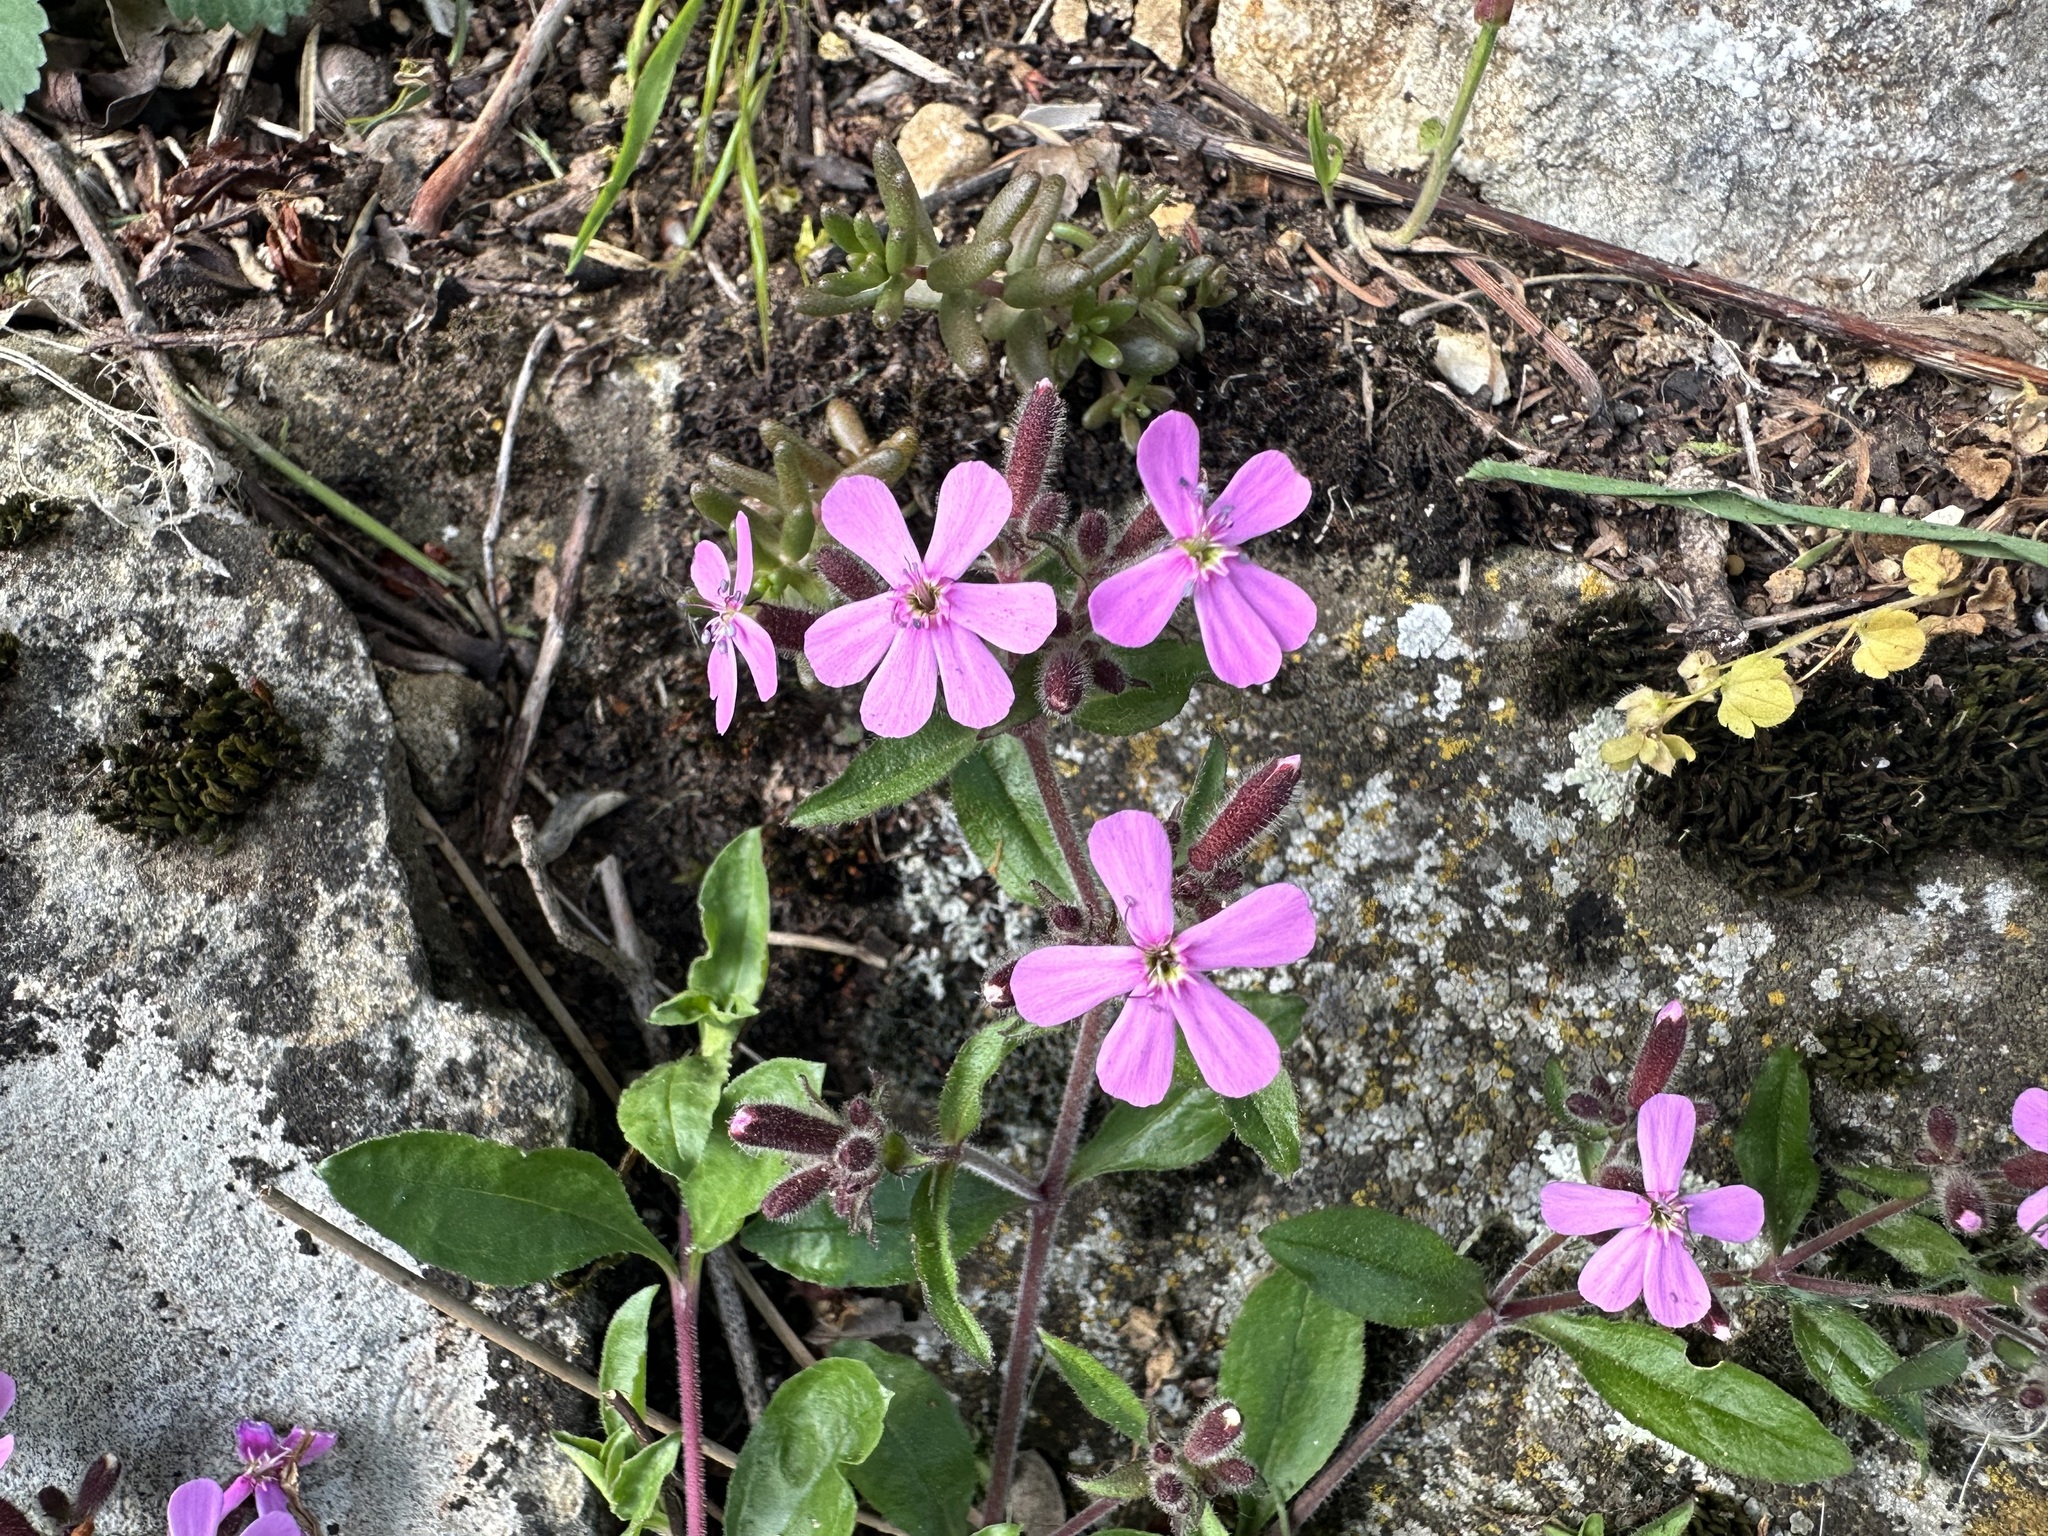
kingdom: Plantae
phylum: Tracheophyta
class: Magnoliopsida
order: Caryophyllales
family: Caryophyllaceae
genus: Saponaria
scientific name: Saponaria ocymoides
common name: Rock soapwort
